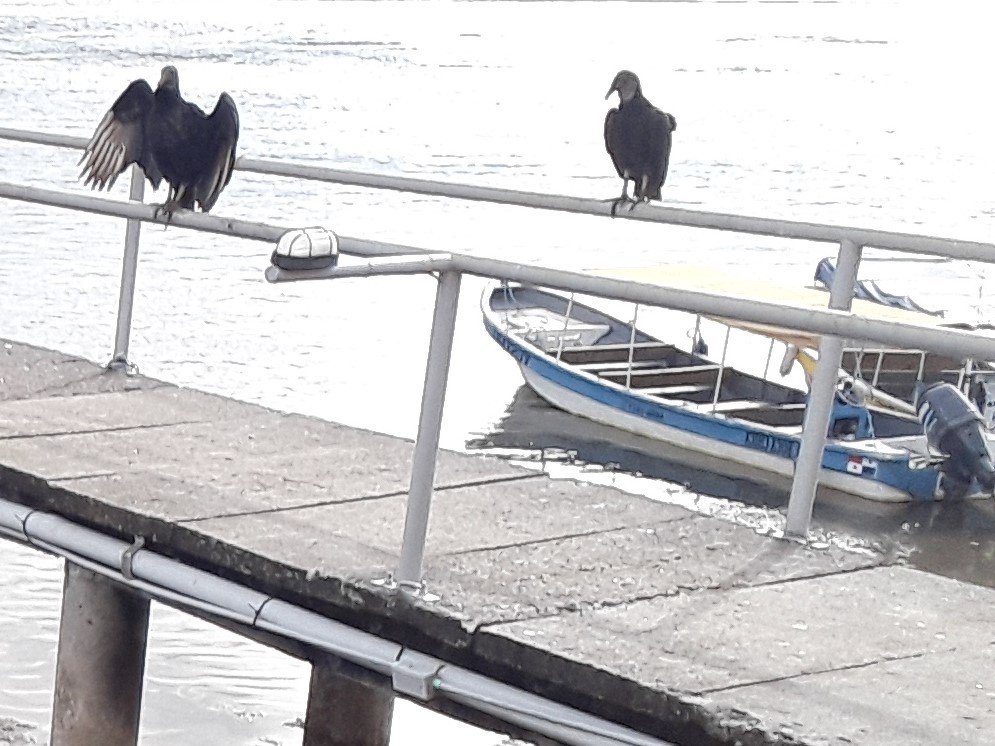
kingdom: Animalia
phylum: Chordata
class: Aves
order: Accipitriformes
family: Cathartidae
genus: Coragyps
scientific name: Coragyps atratus
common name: Black vulture
